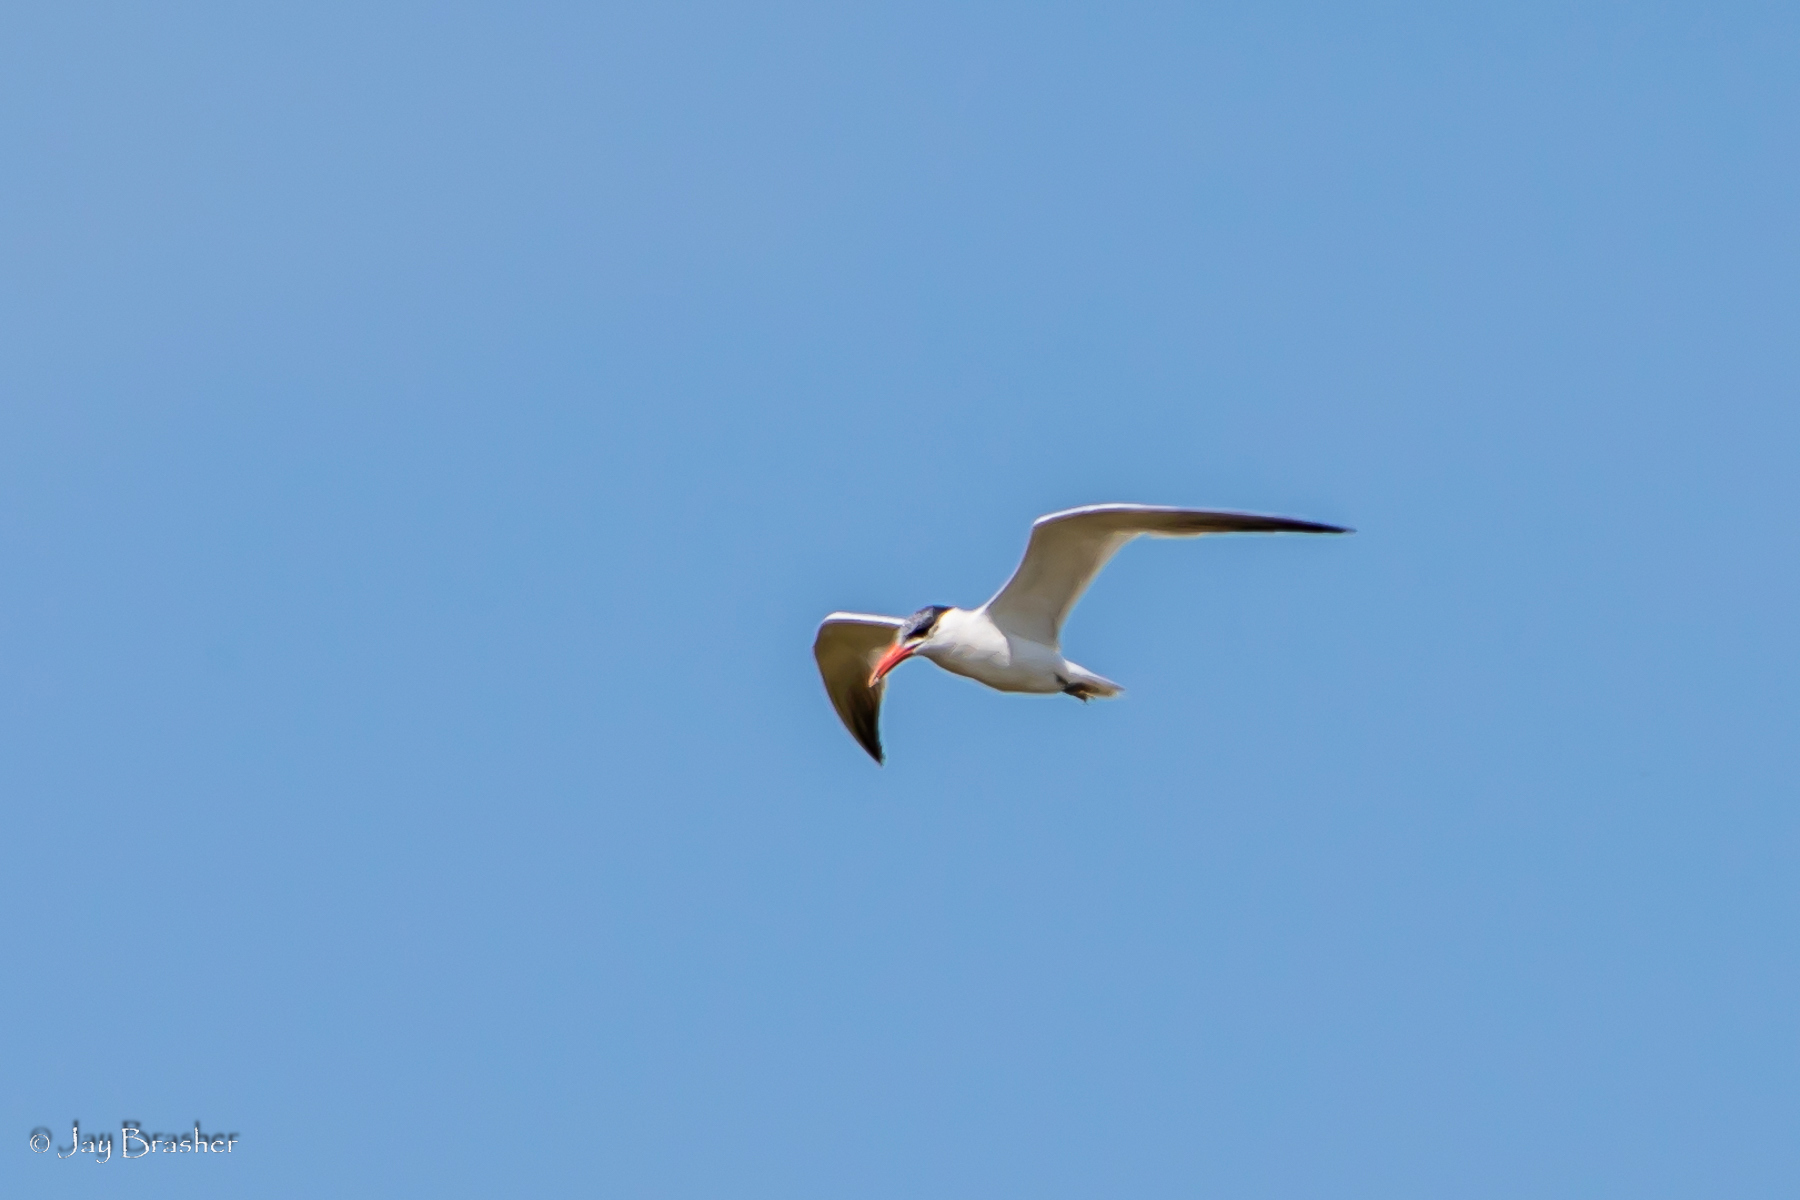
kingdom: Animalia
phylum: Chordata
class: Aves
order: Charadriiformes
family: Laridae
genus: Hydroprogne
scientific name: Hydroprogne caspia
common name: Caspian tern
